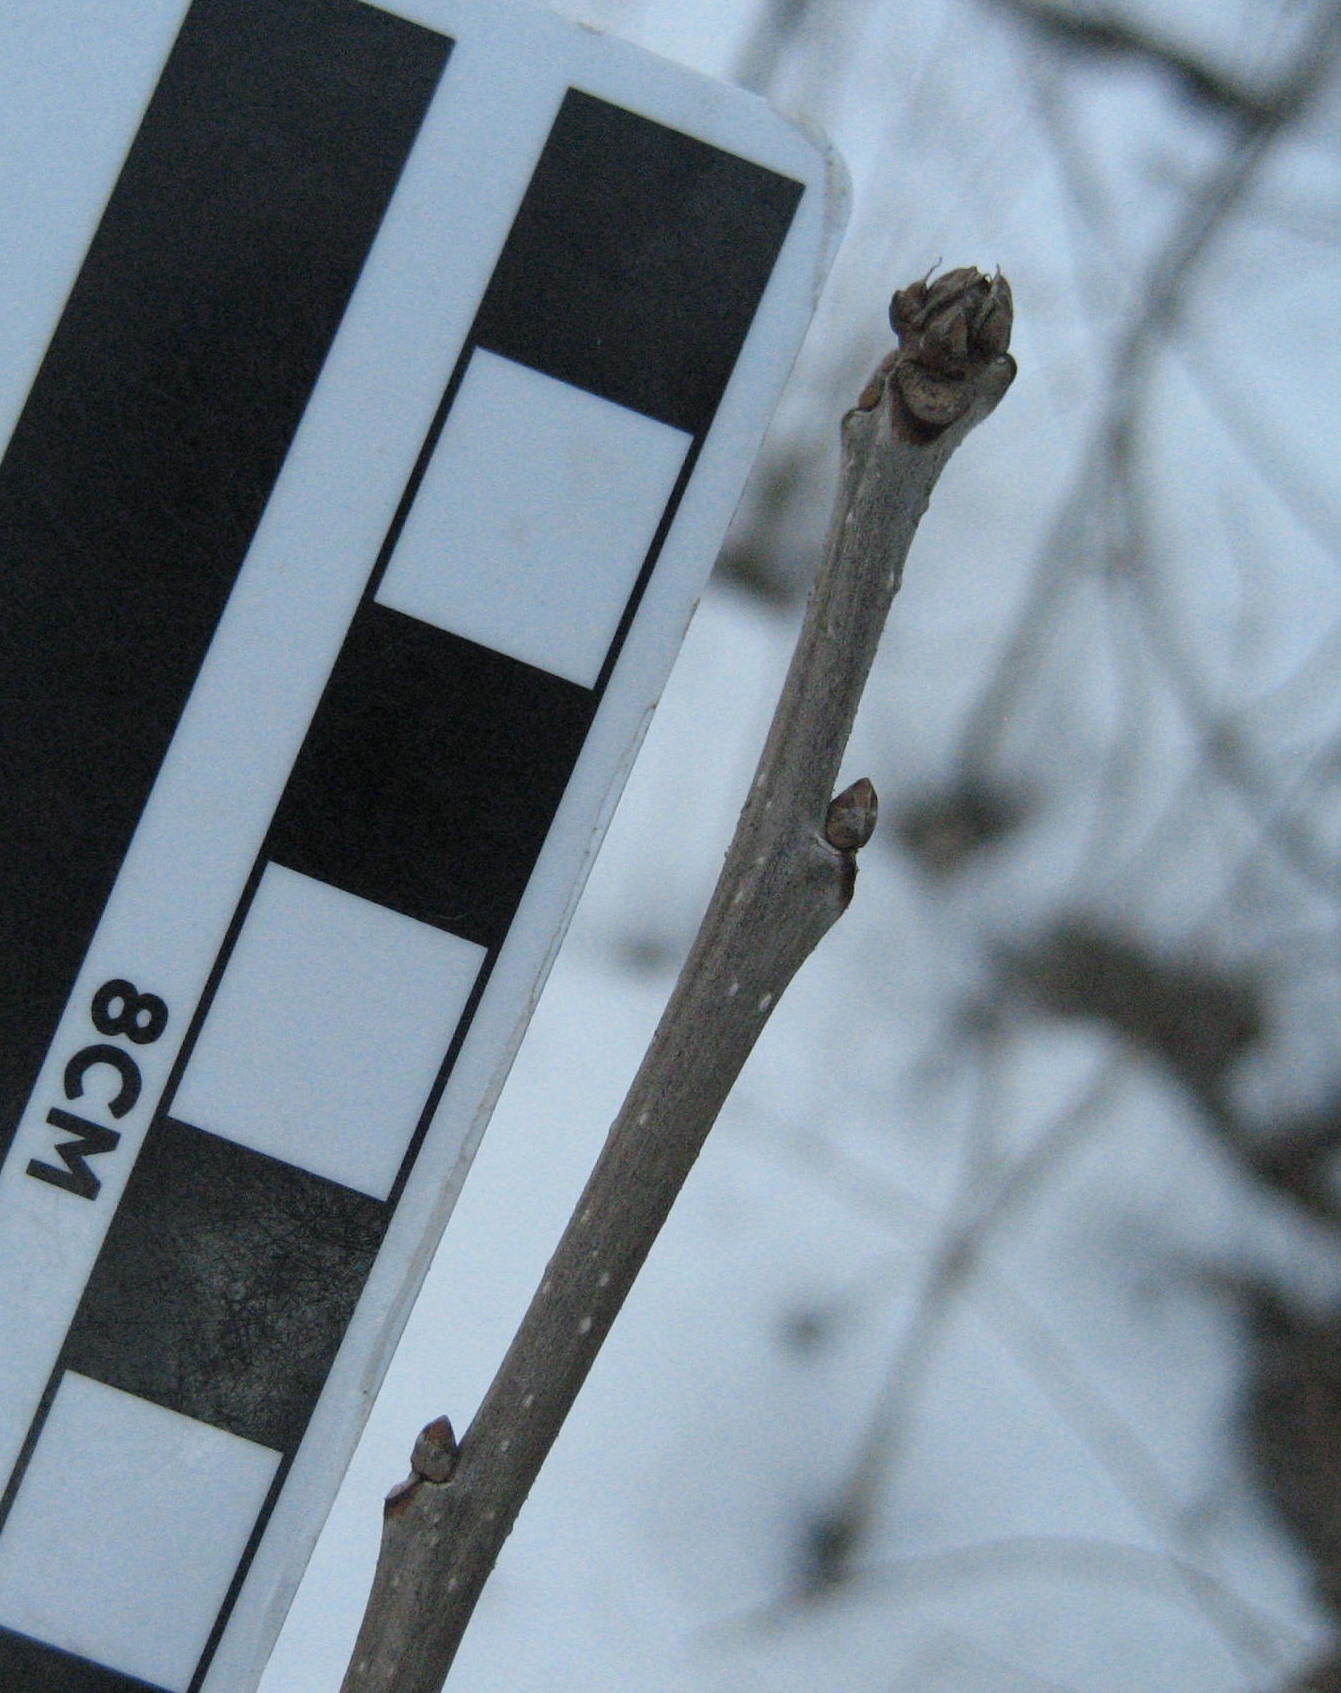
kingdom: Plantae
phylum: Tracheophyta
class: Magnoliopsida
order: Fagales
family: Fagaceae
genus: Quercus
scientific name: Quercus macrocarpa
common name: Bur oak
